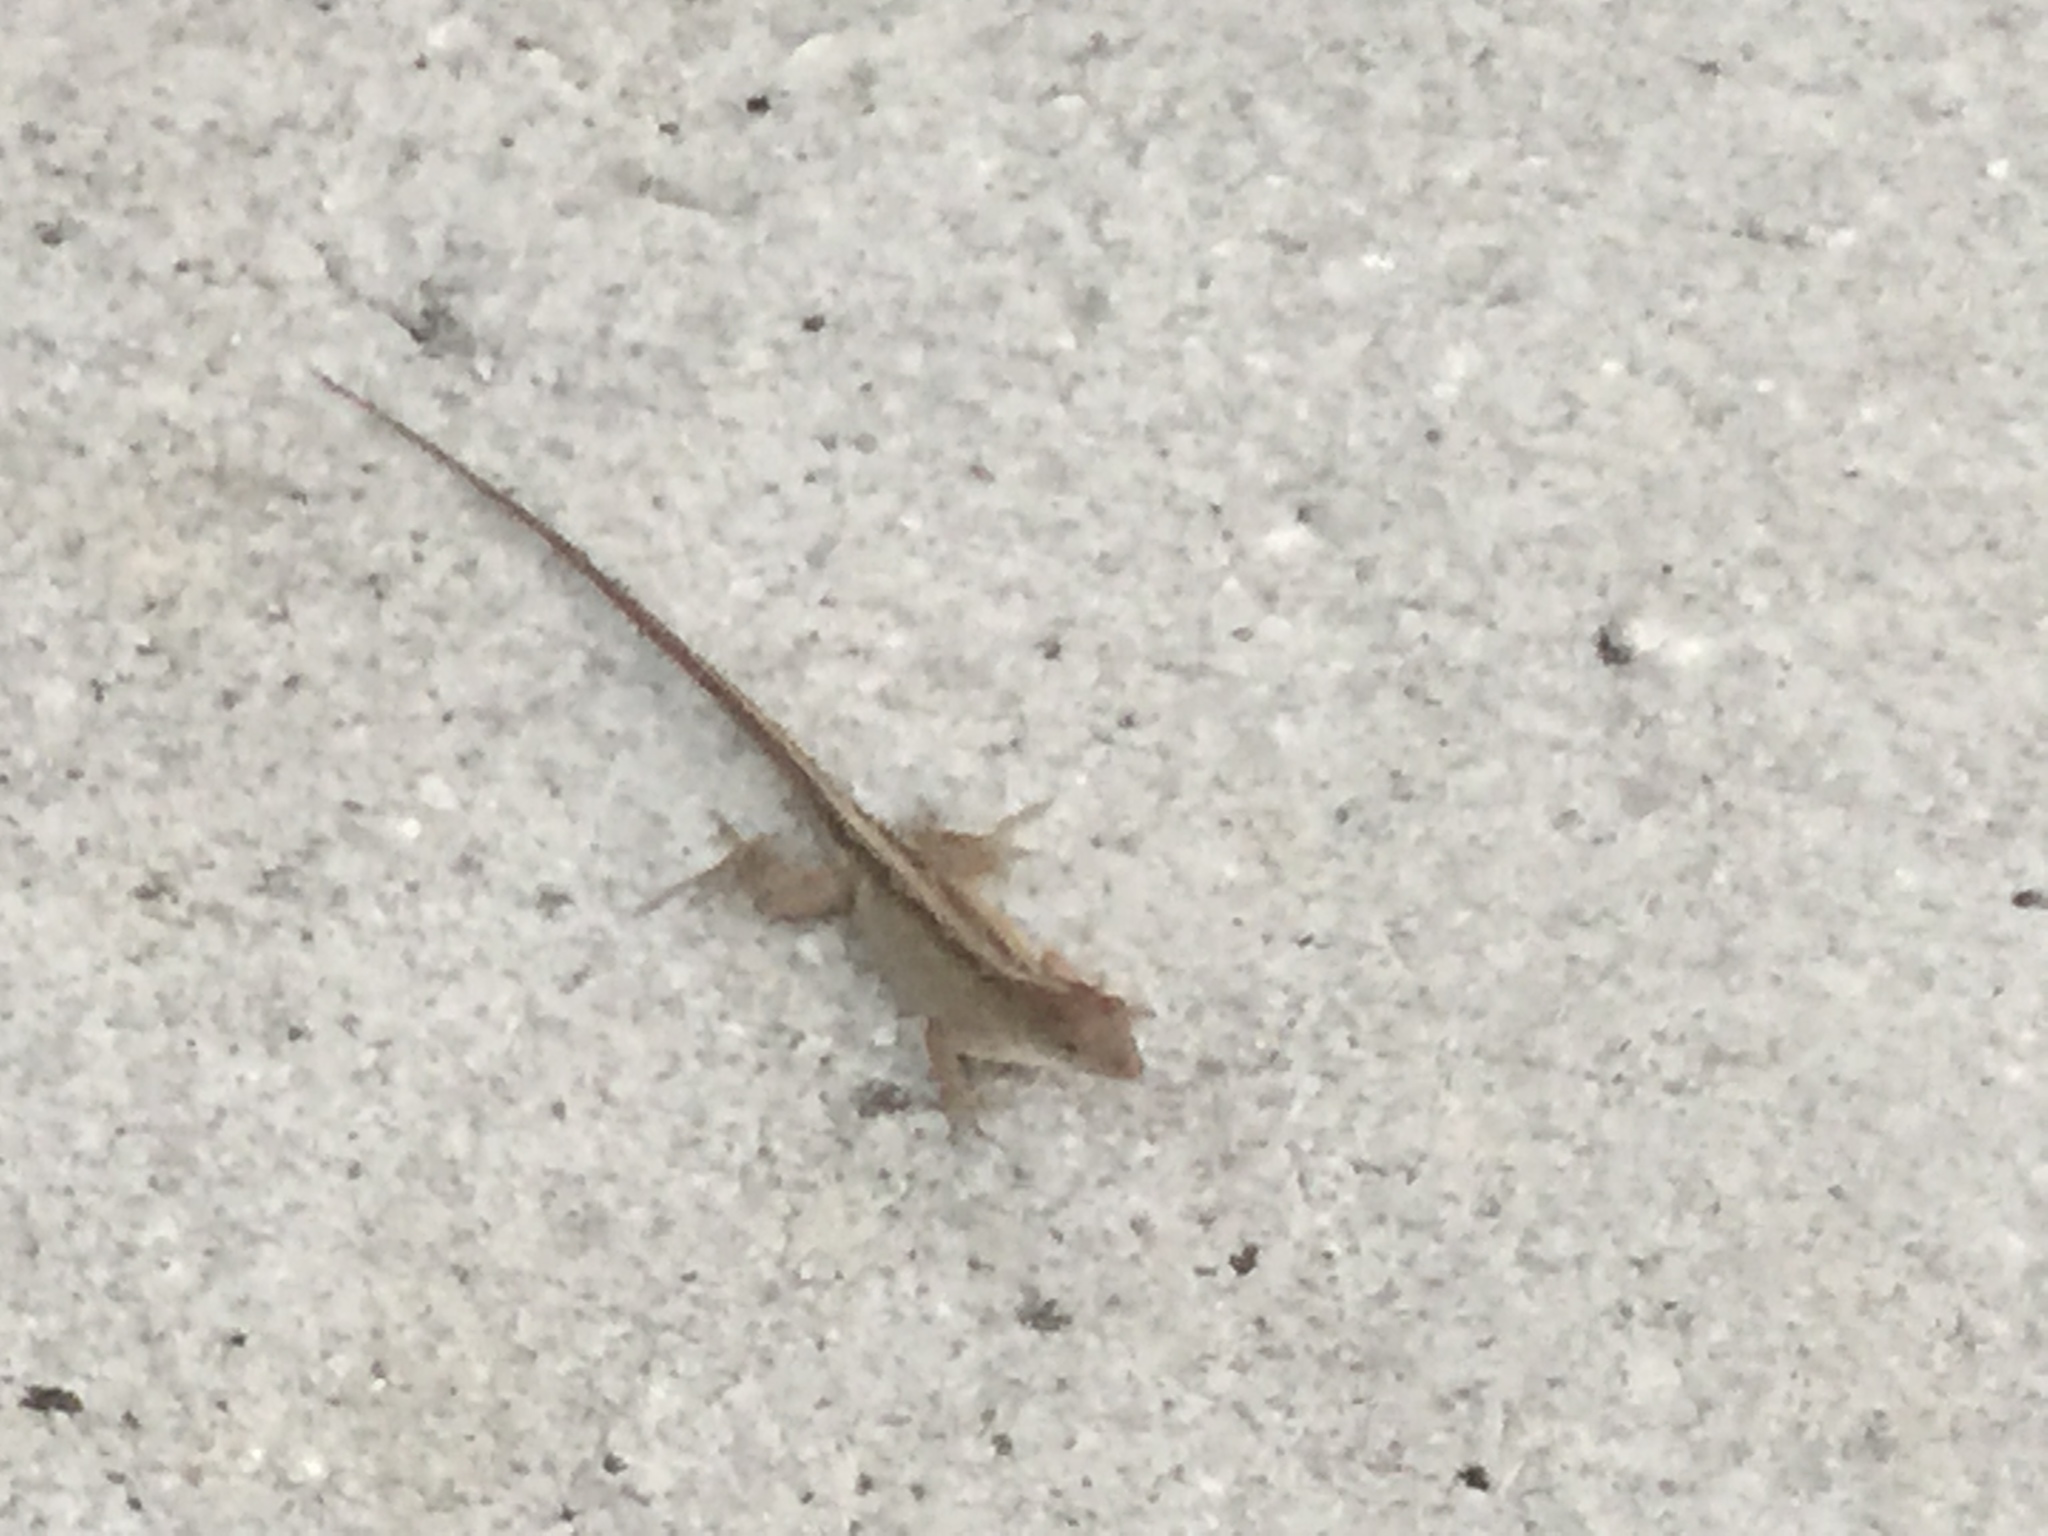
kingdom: Animalia
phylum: Chordata
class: Squamata
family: Dactyloidae
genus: Anolis
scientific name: Anolis sagrei
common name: Brown anole
